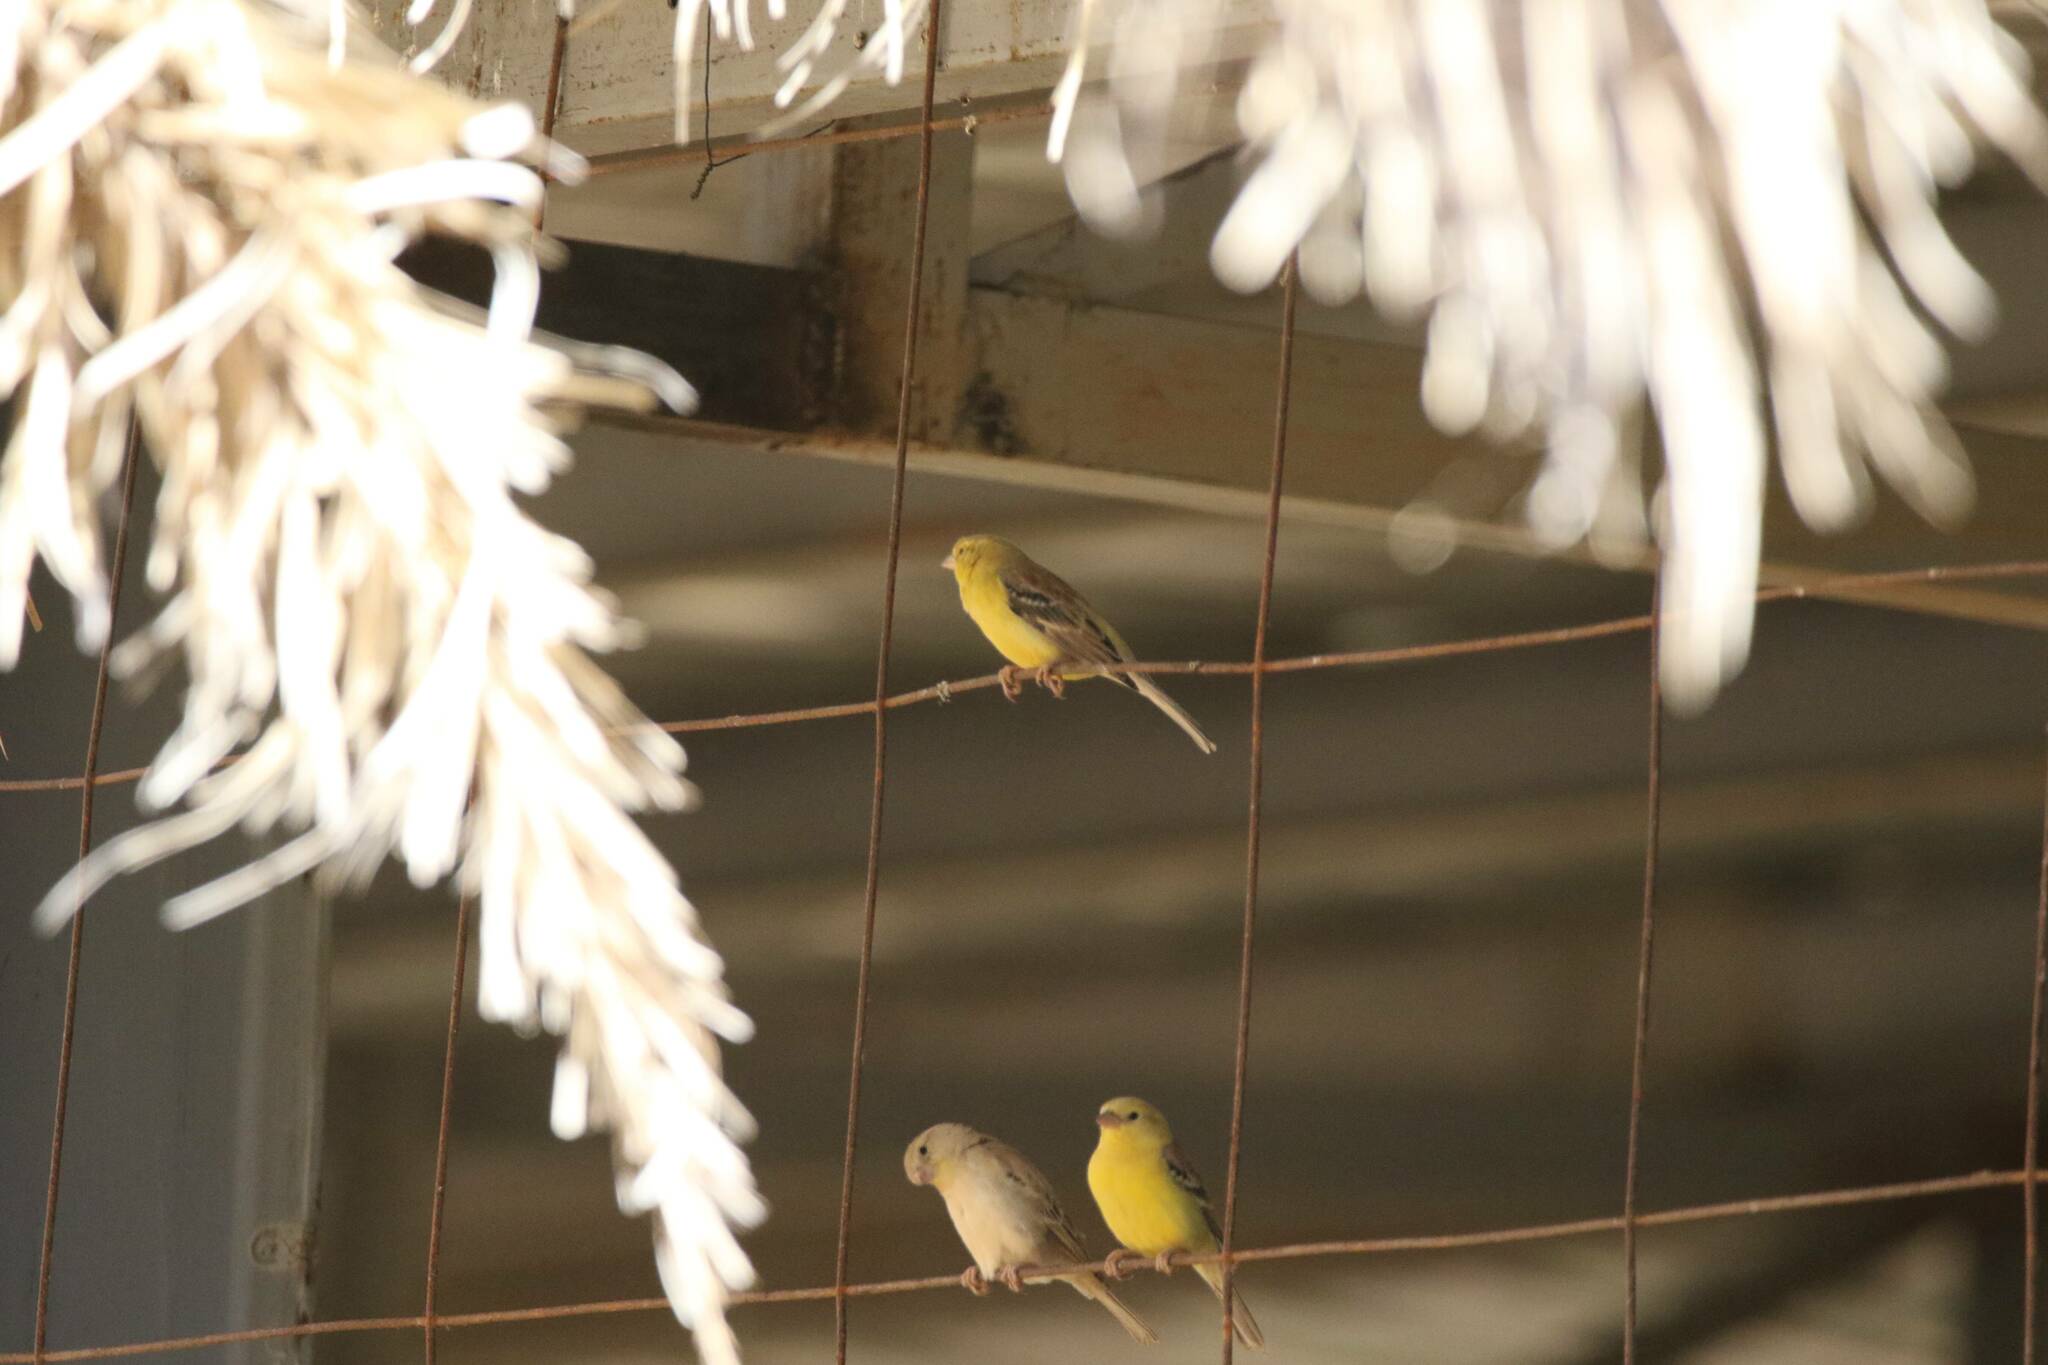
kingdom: Animalia
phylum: Chordata
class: Aves
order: Passeriformes
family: Passeridae
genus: Passer
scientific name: Passer luteus
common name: Sudan golden sparrow
